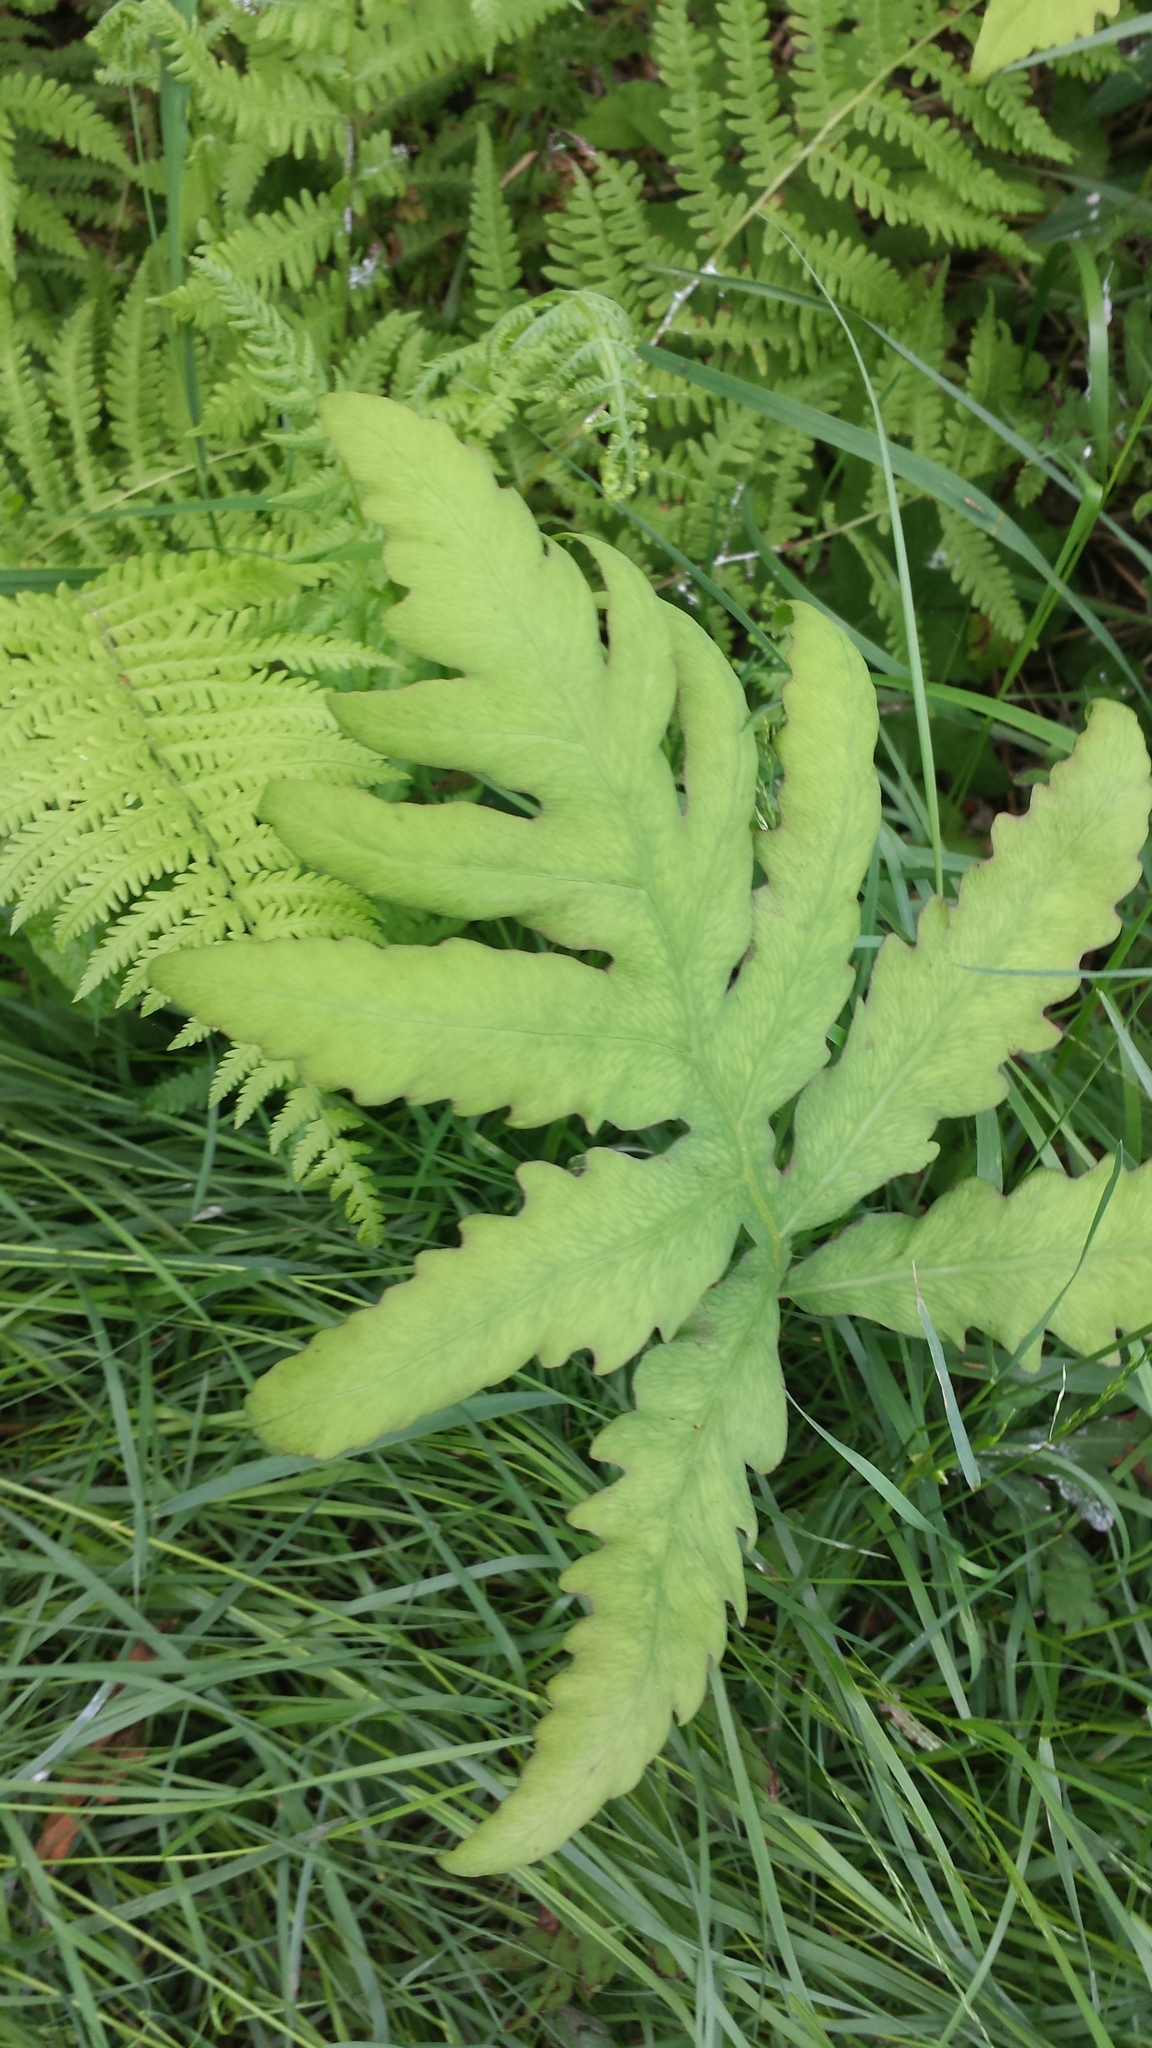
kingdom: Plantae
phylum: Tracheophyta
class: Polypodiopsida
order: Polypodiales
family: Onocleaceae
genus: Onoclea
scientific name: Onoclea sensibilis
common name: Sensitive fern
